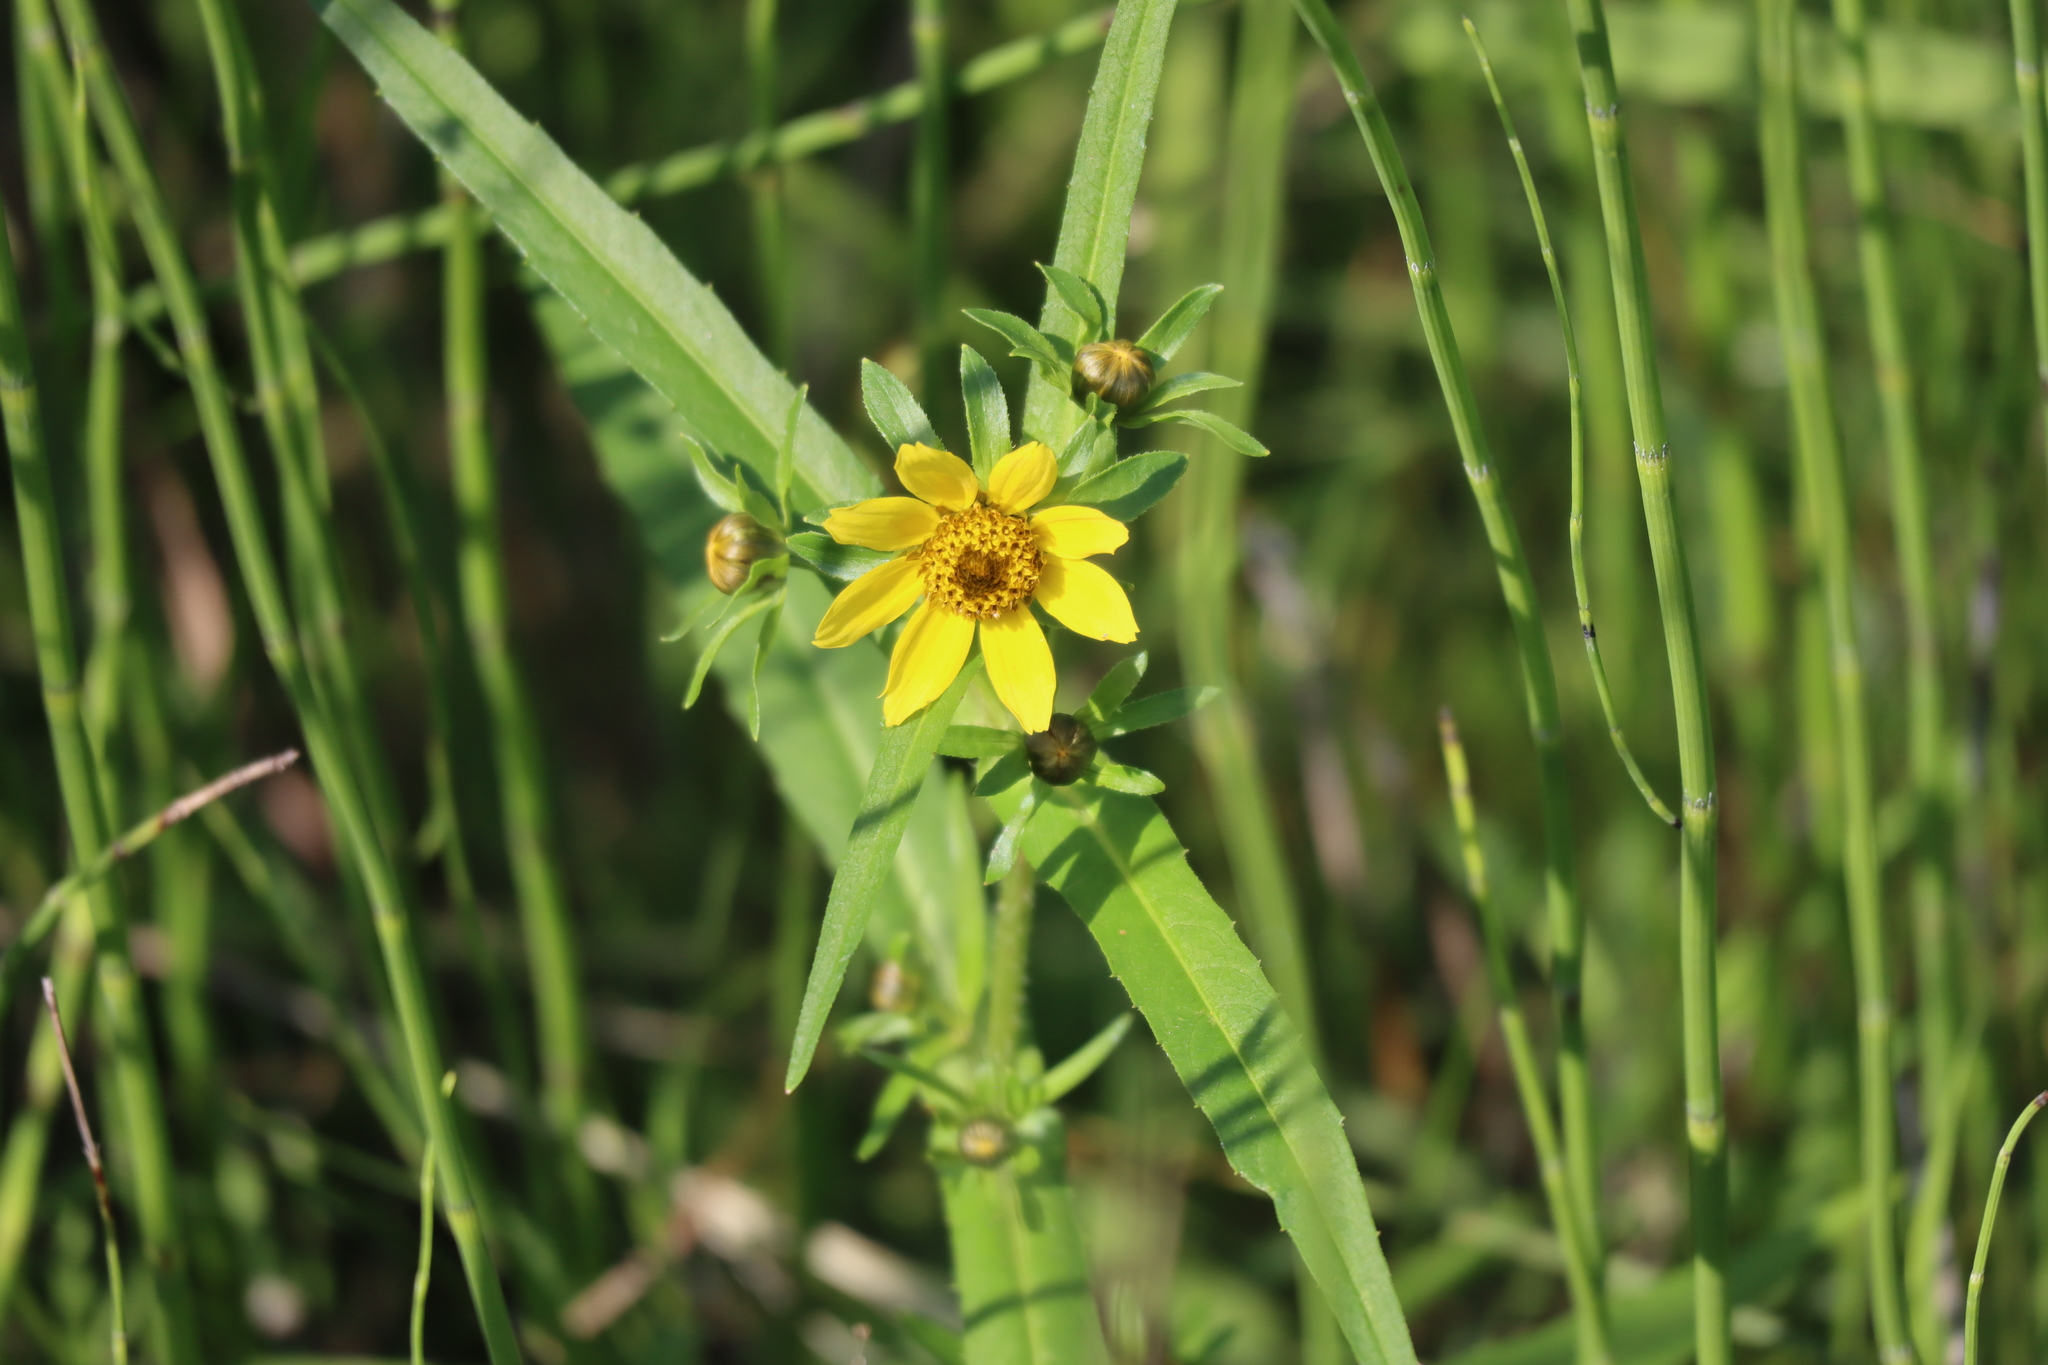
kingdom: Plantae
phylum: Tracheophyta
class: Magnoliopsida
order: Asterales
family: Asteraceae
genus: Bidens
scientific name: Bidens cernua
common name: Nodding bur-marigold
